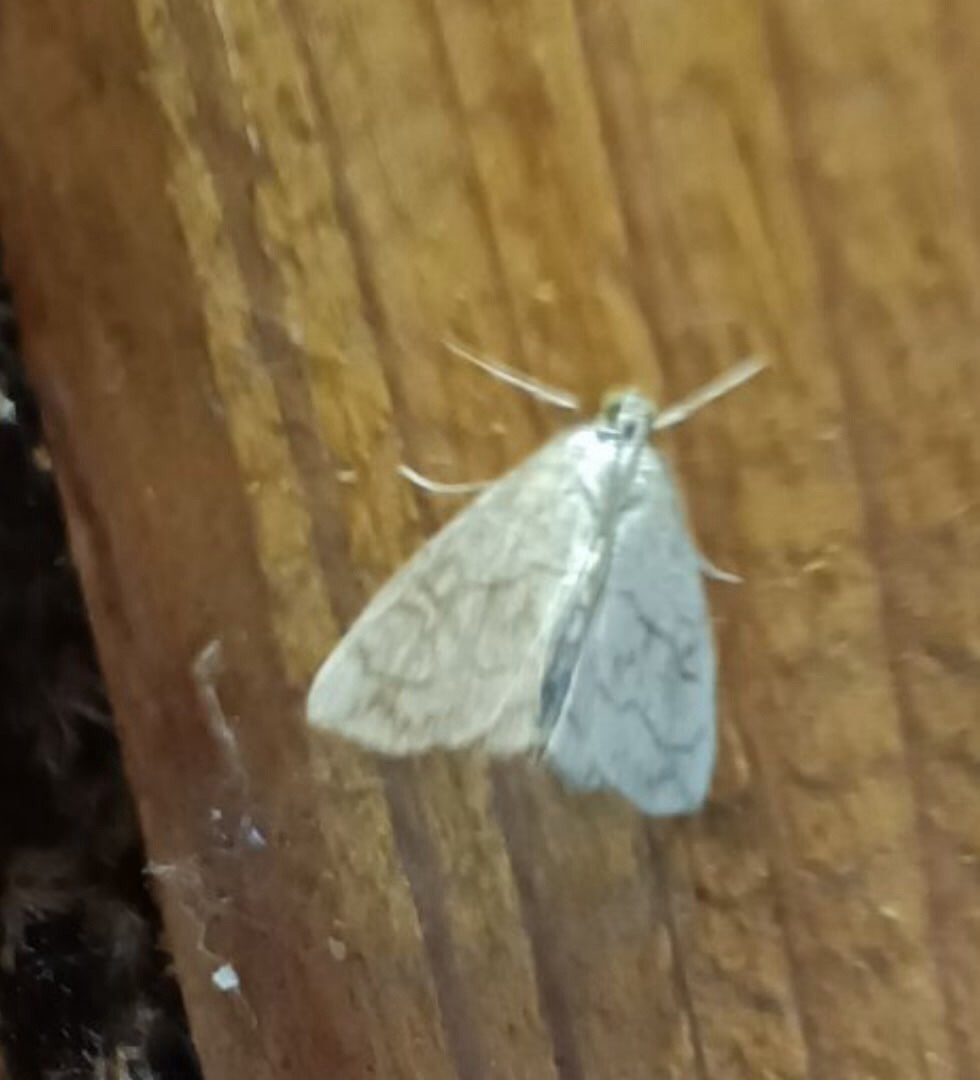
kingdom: Animalia
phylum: Arthropoda
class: Insecta
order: Lepidoptera
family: Crambidae
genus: Evergestis
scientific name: Evergestis pallidata
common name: Chequered pearl
